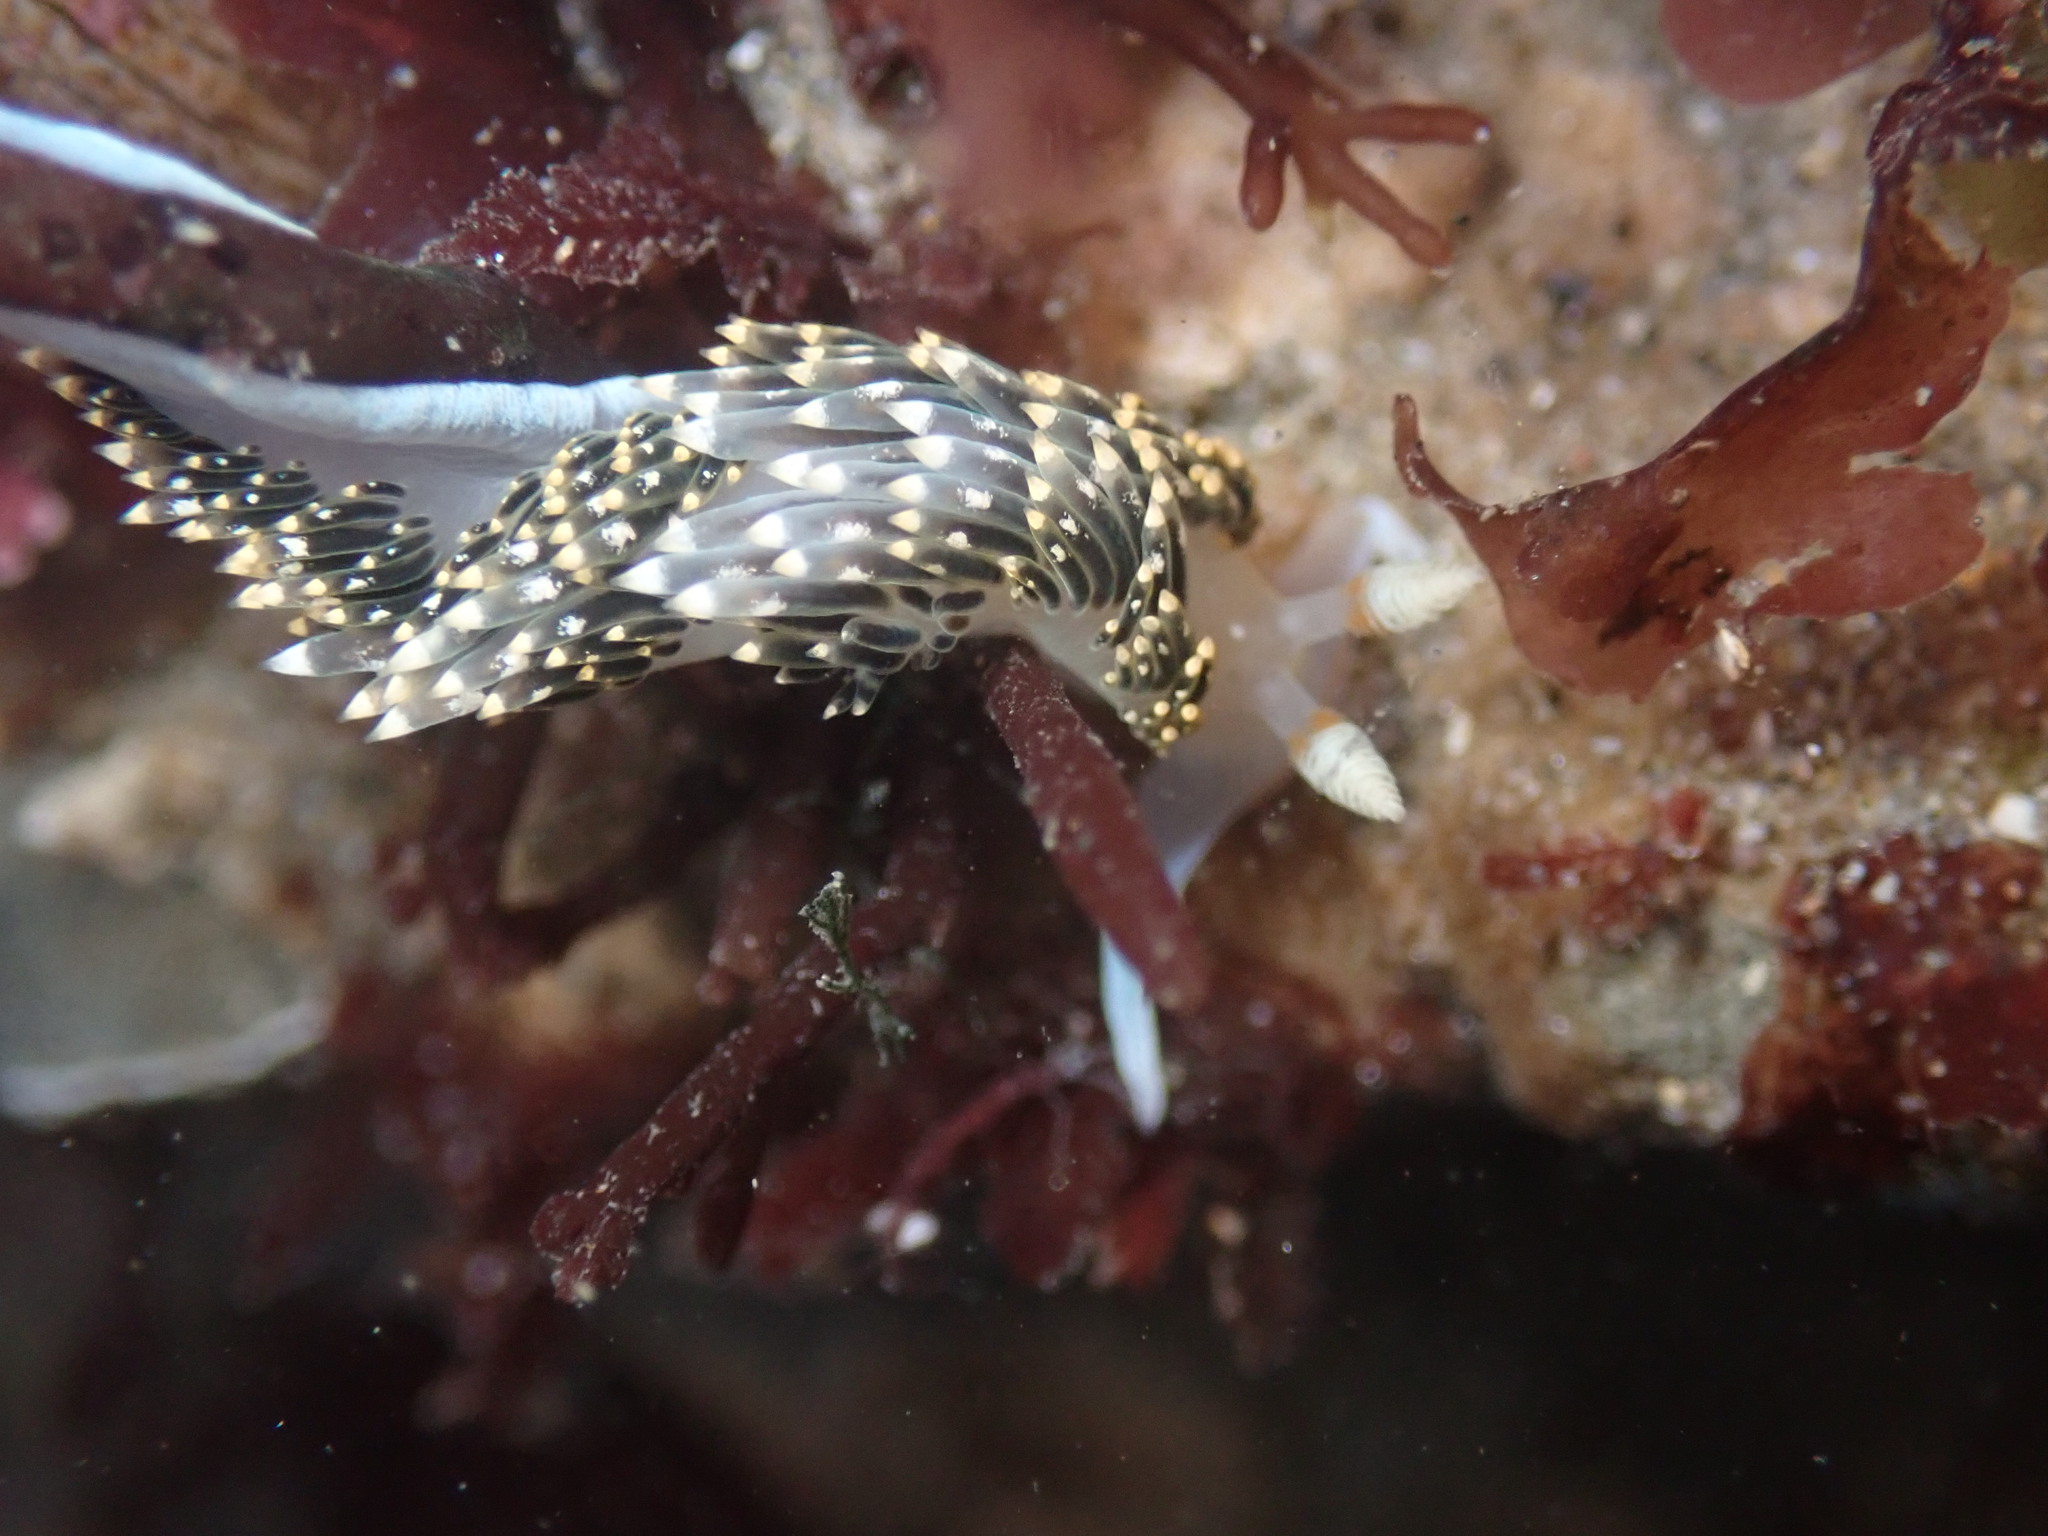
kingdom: Animalia
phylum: Mollusca
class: Gastropoda
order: Nudibranchia
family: Facelinidae
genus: Phidiana
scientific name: Phidiana hiltoni
